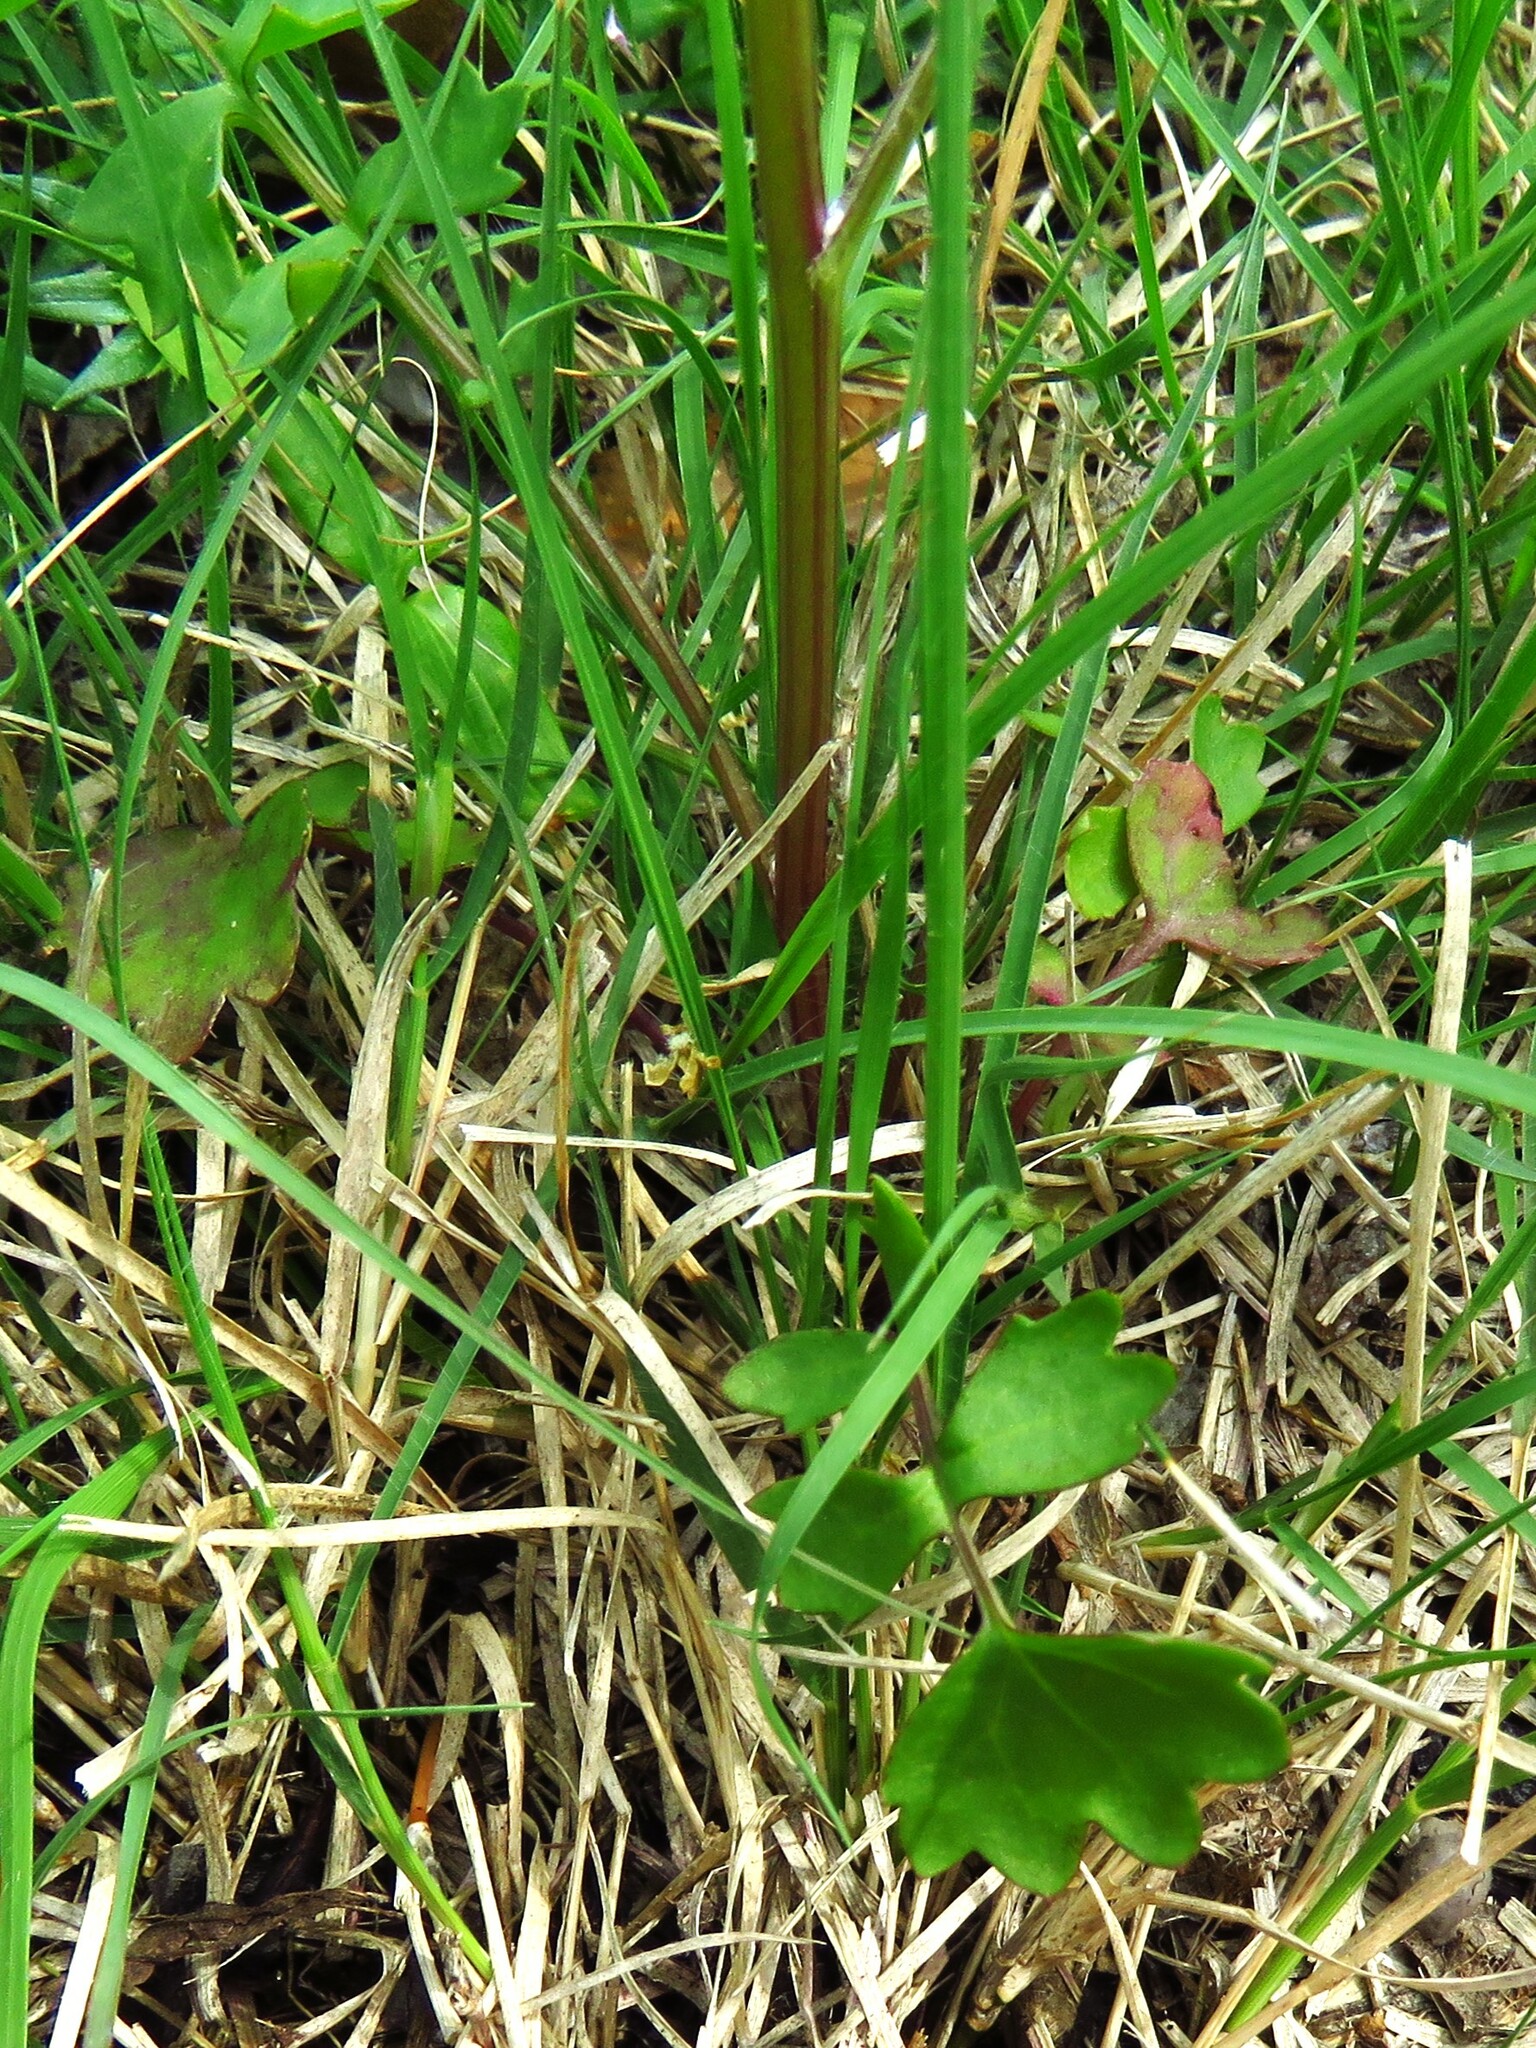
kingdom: Plantae
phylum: Tracheophyta
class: Magnoliopsida
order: Asterales
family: Asteraceae
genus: Packera
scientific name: Packera tampicana
